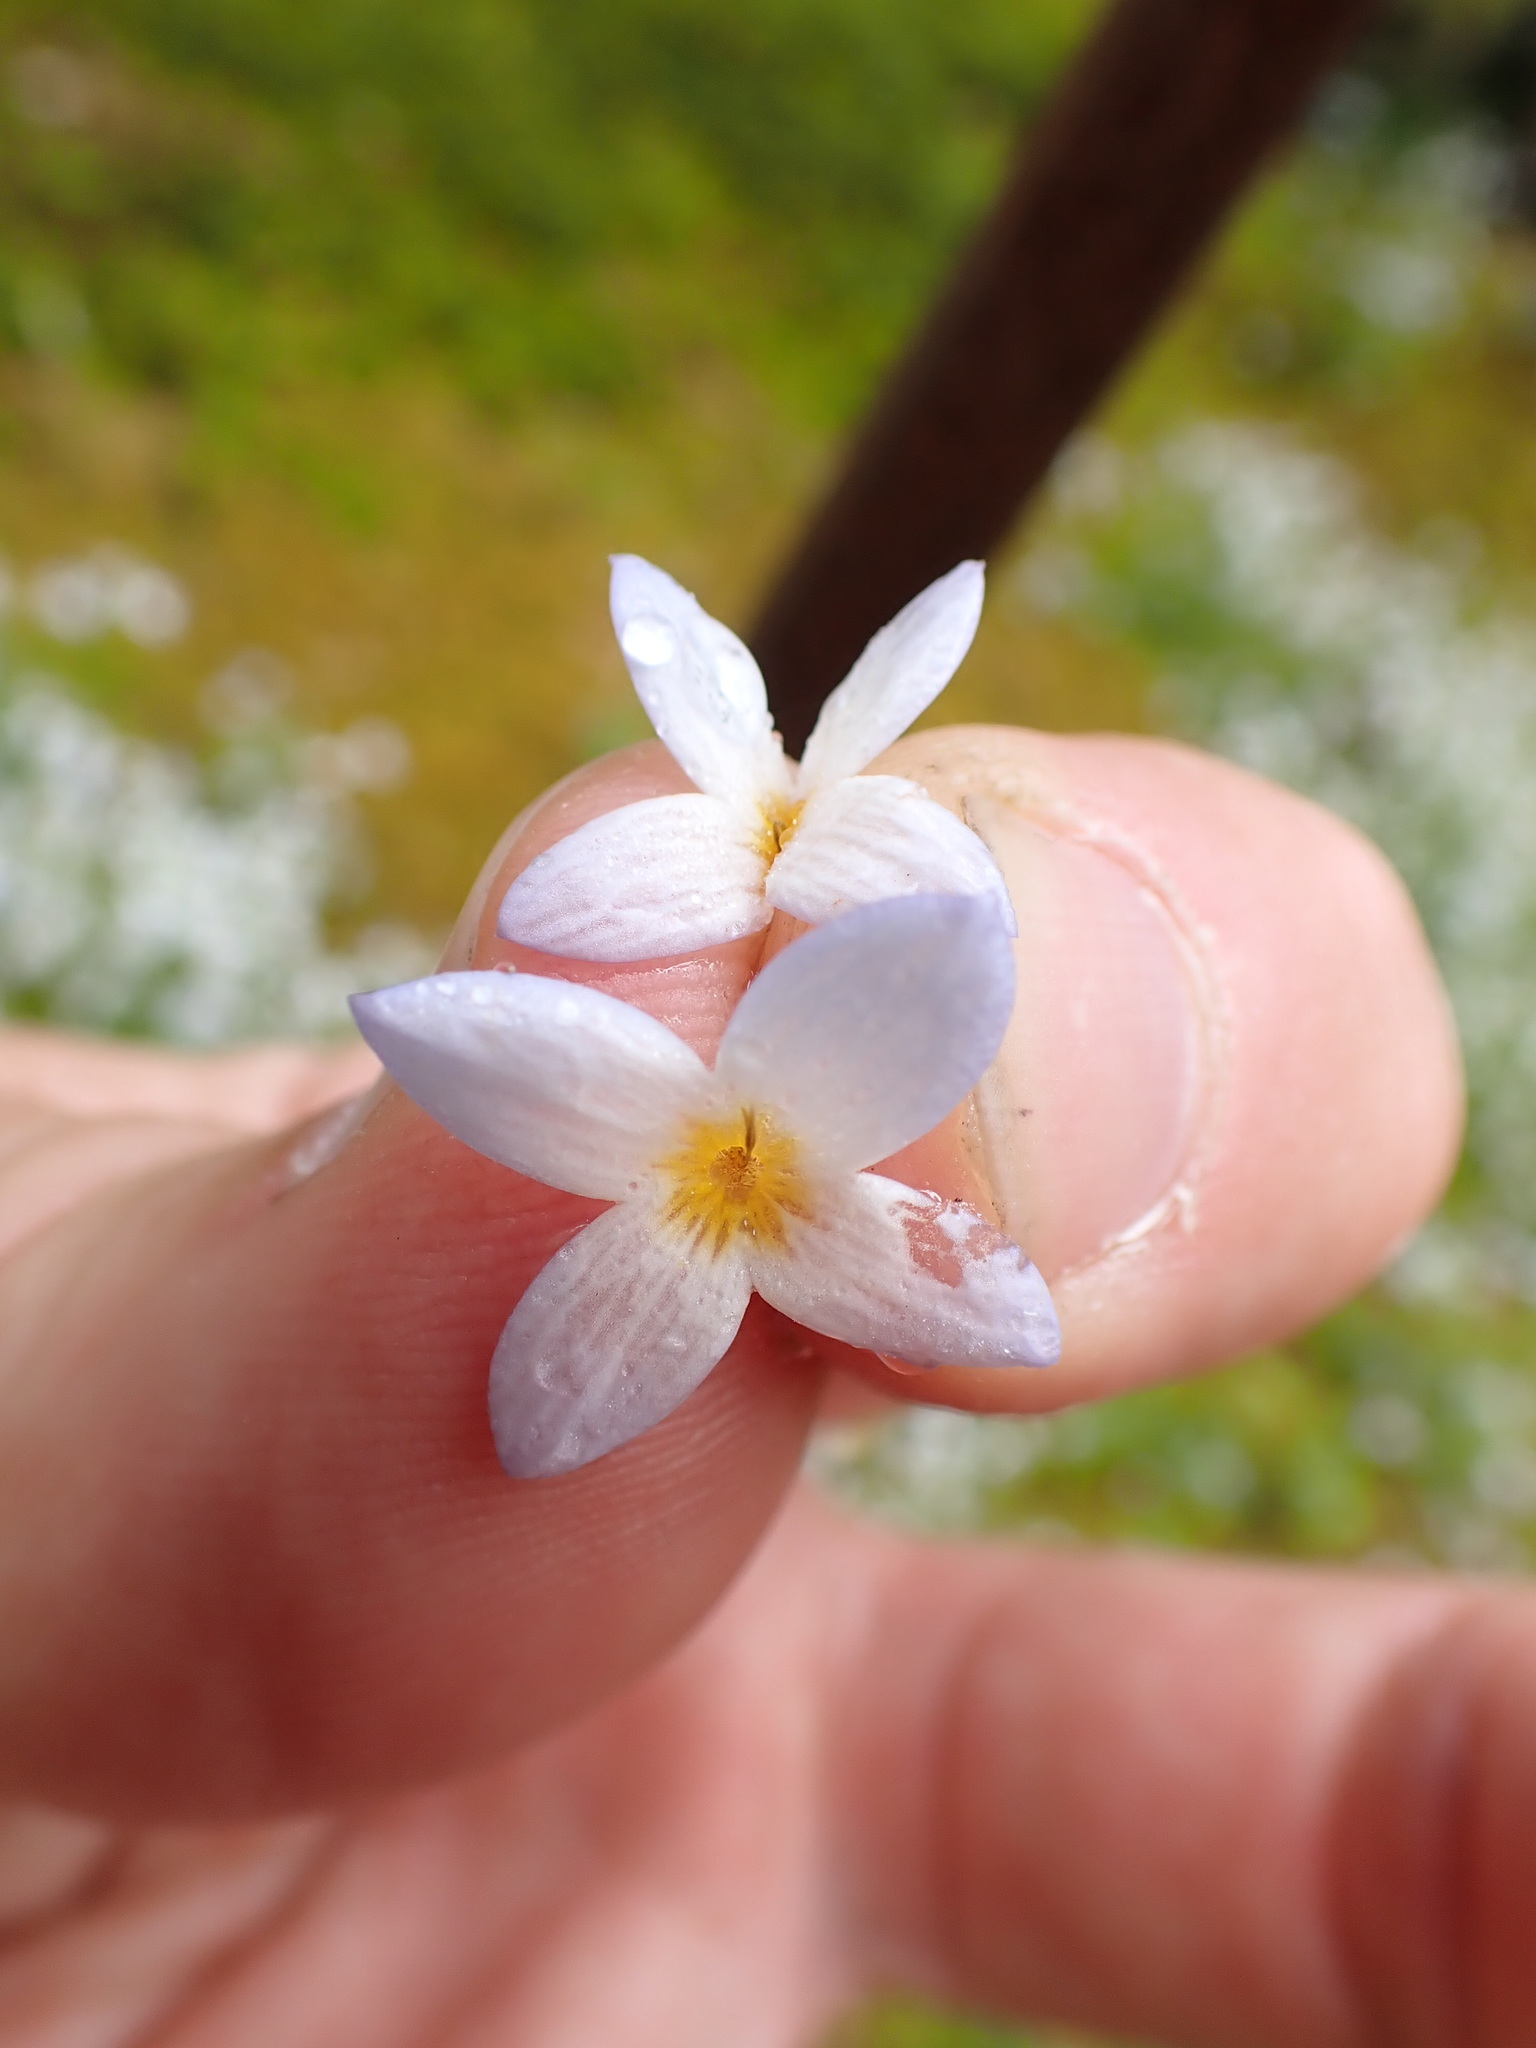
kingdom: Plantae
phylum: Tracheophyta
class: Magnoliopsida
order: Gentianales
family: Rubiaceae
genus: Houstonia
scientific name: Houstonia caerulea
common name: Bluets
